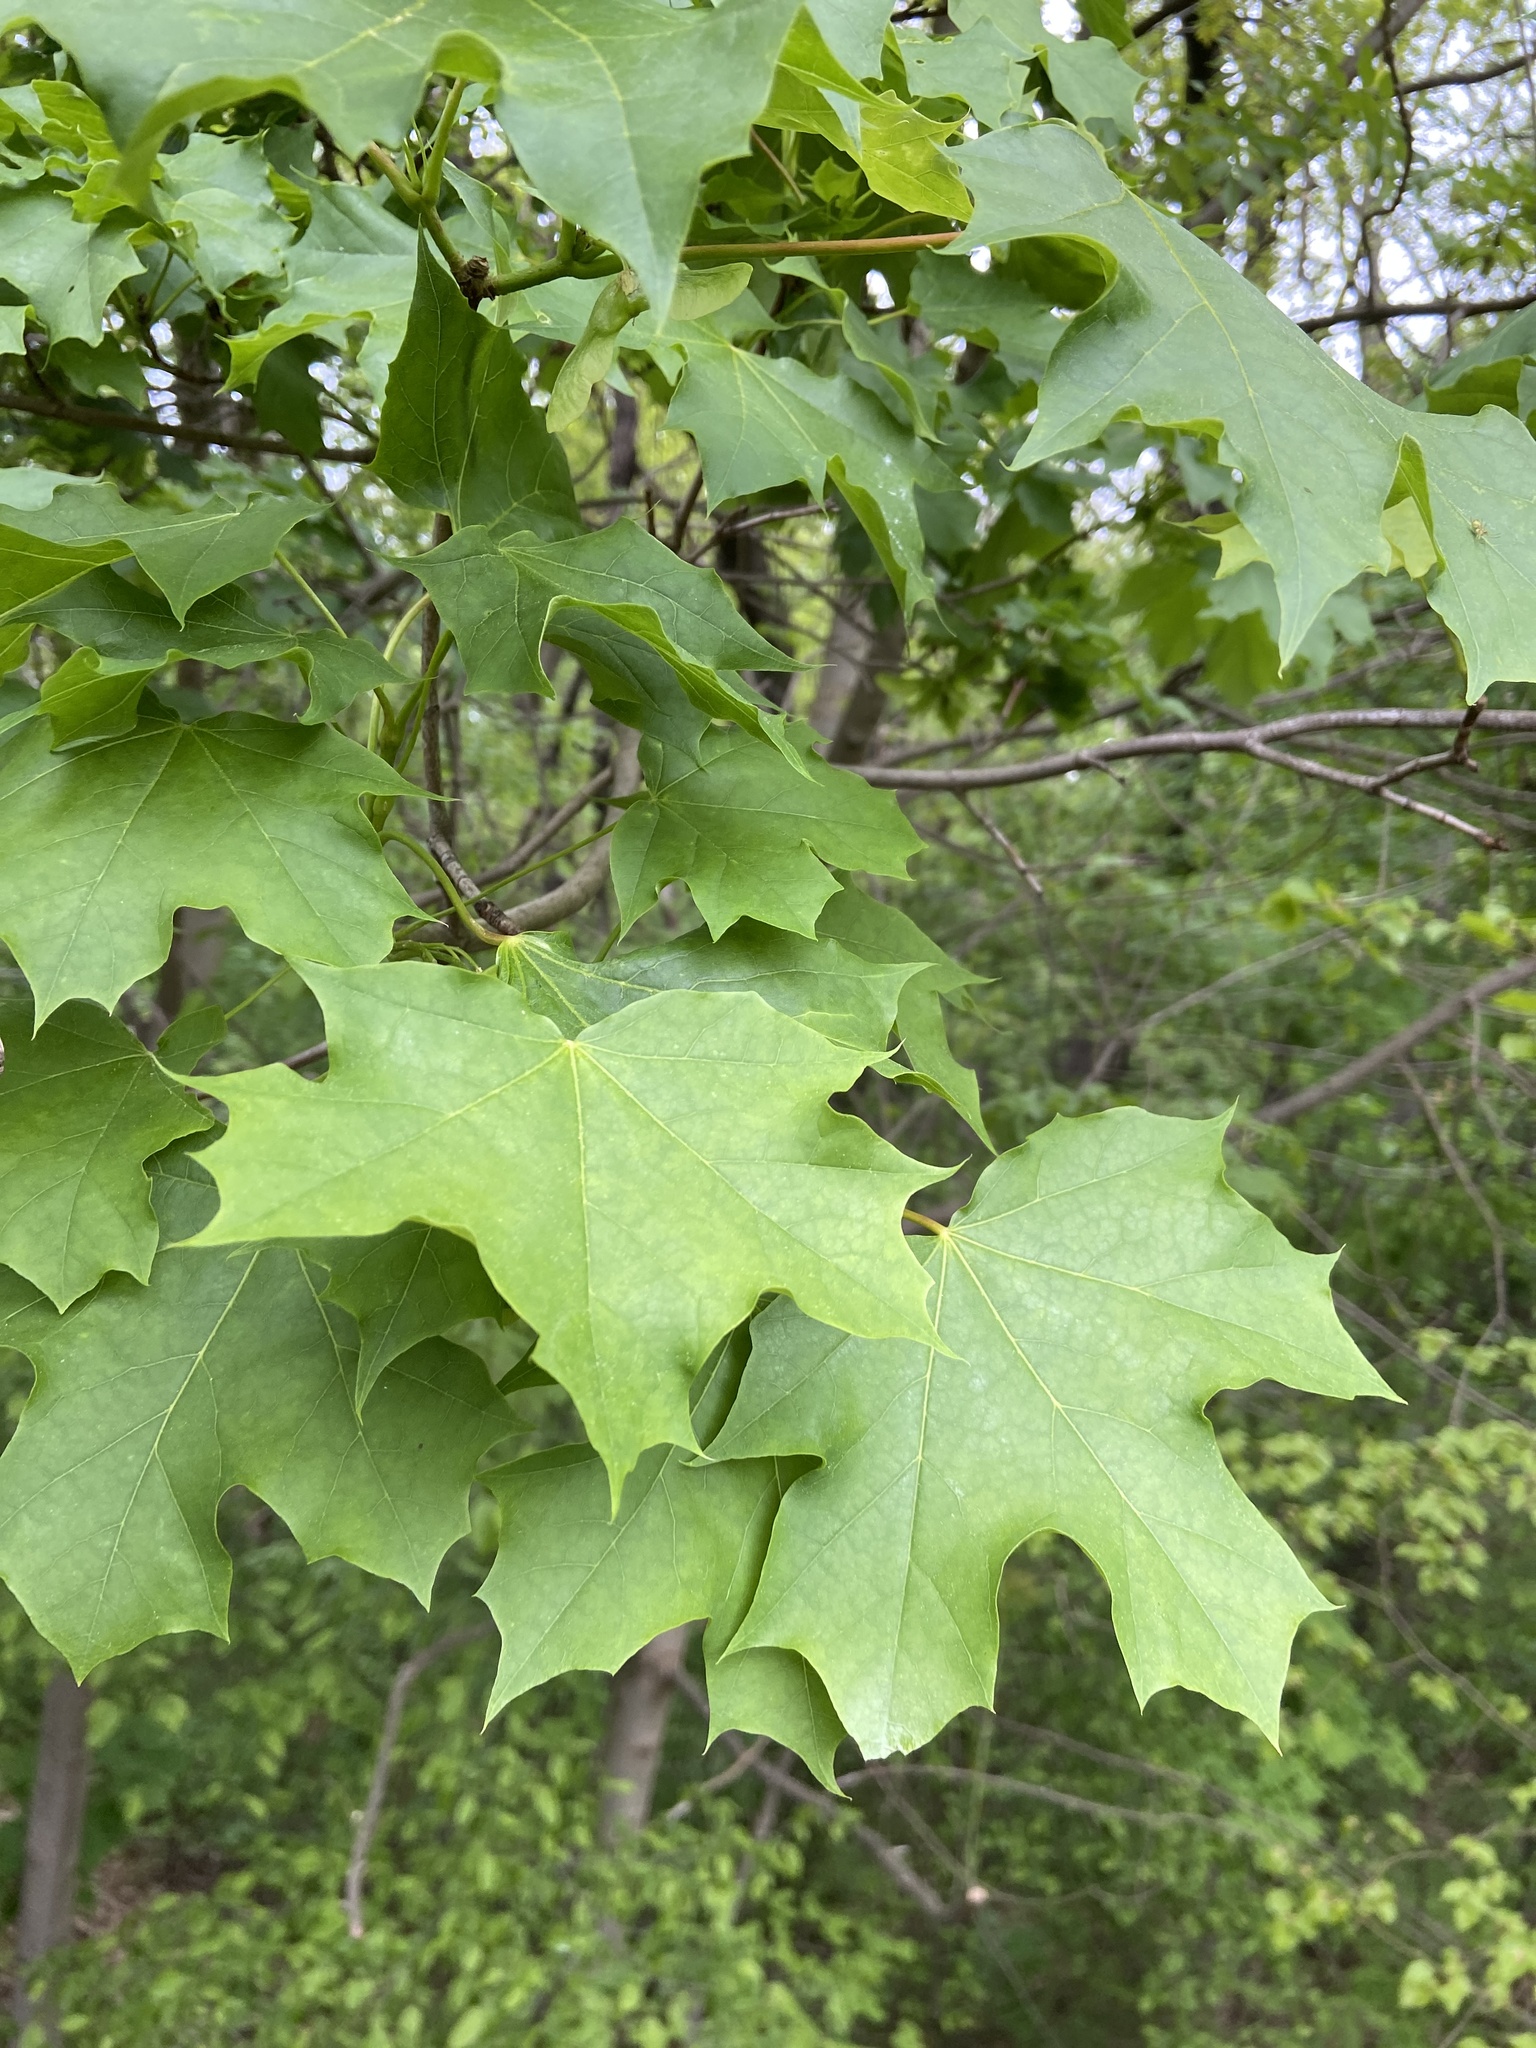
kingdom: Plantae
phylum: Tracheophyta
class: Magnoliopsida
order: Sapindales
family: Sapindaceae
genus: Acer
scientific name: Acer platanoides
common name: Norway maple
